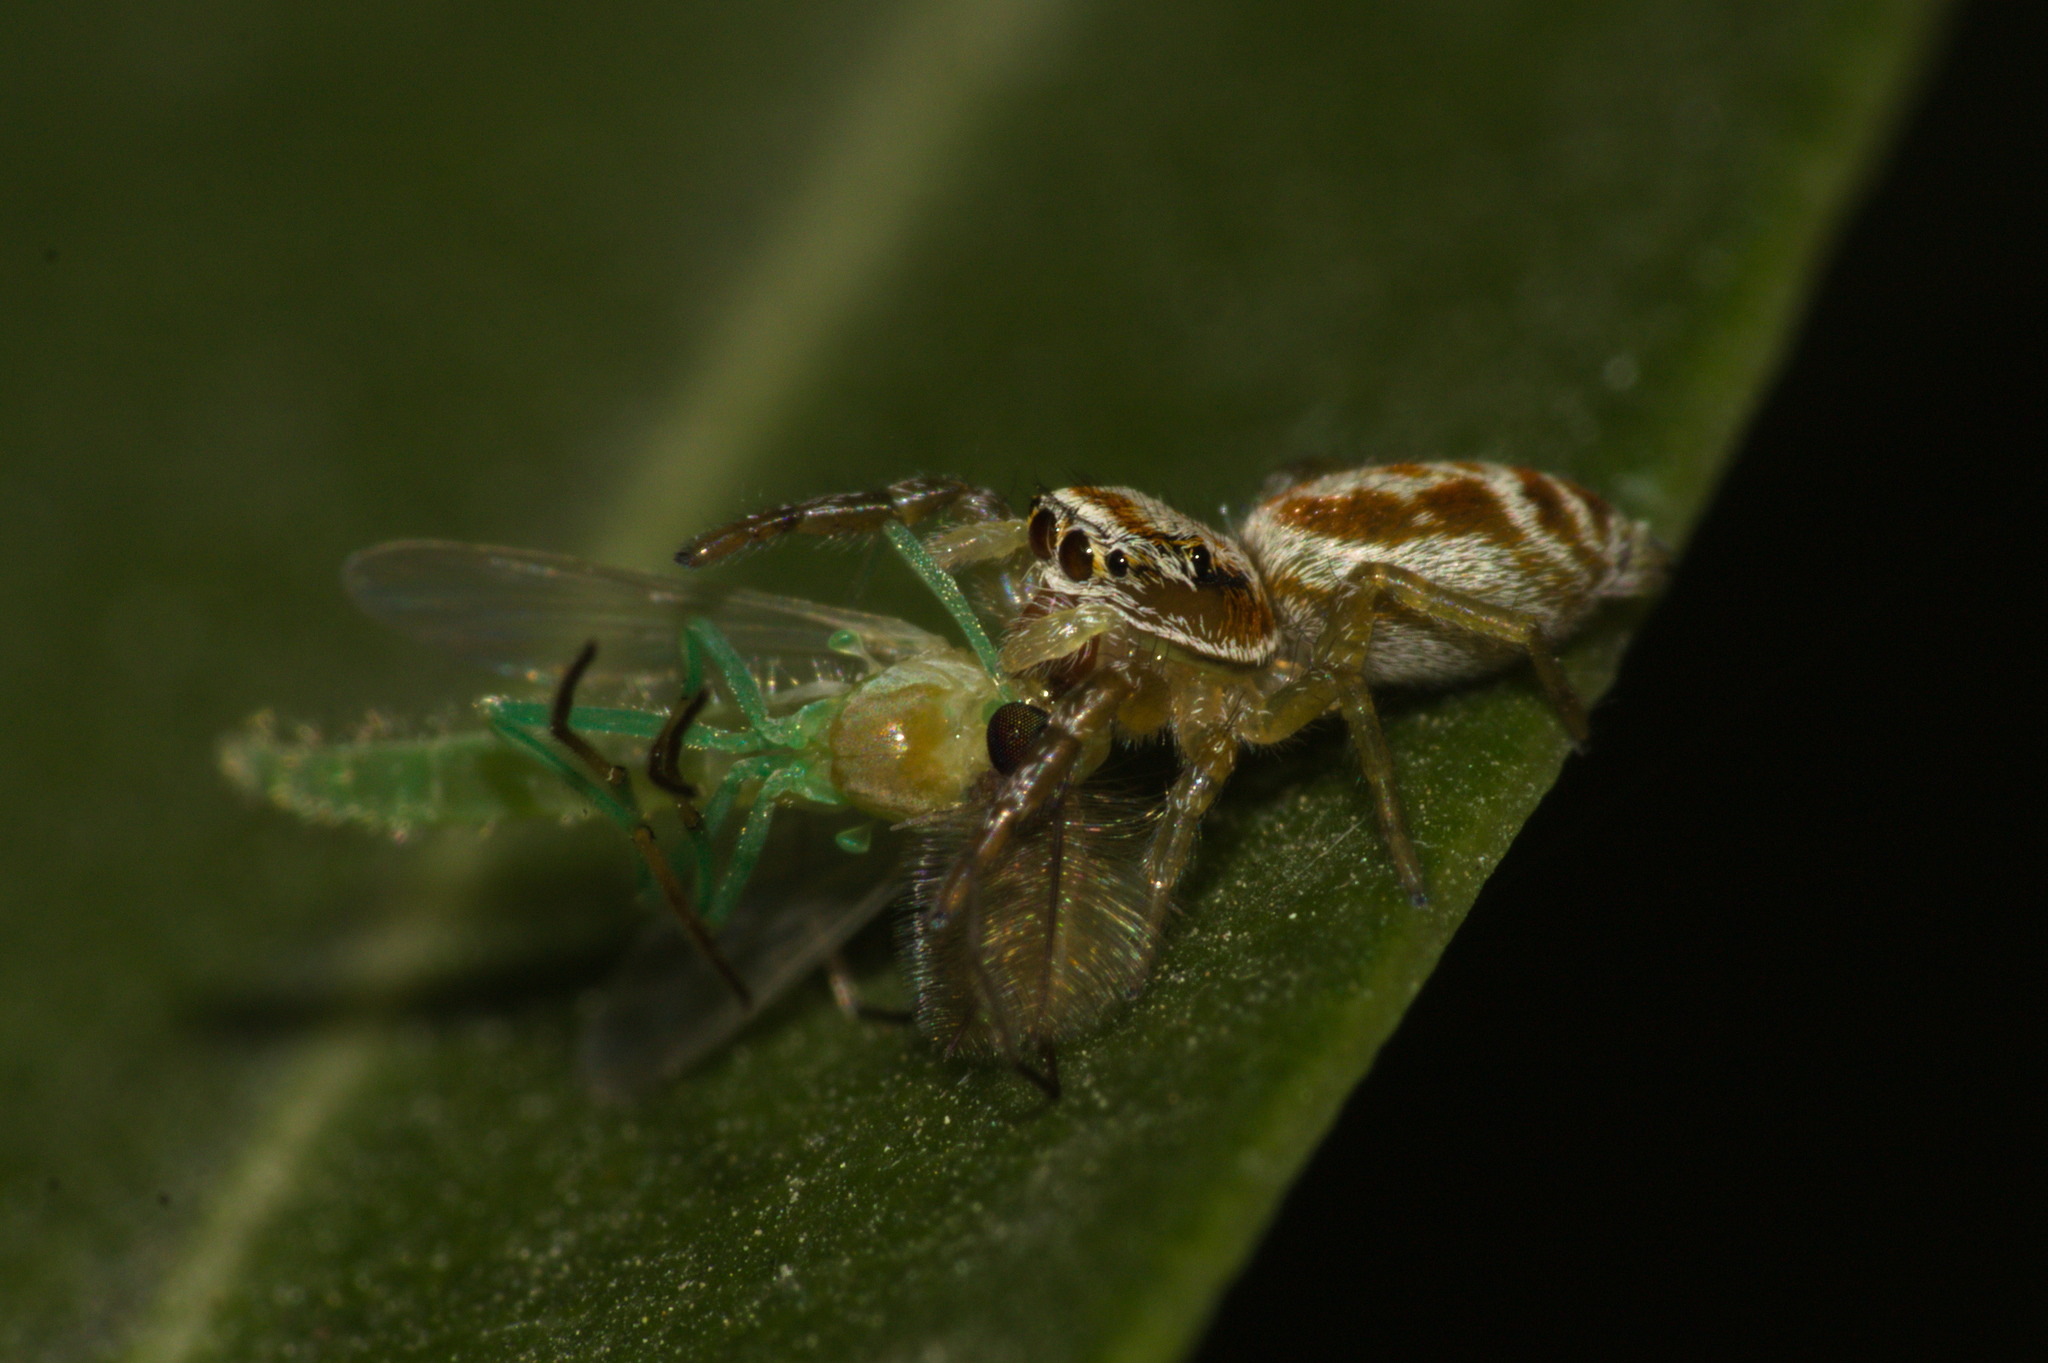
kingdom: Animalia
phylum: Arthropoda
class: Arachnida
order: Araneae
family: Salticidae
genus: Icius
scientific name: Icius subinermis
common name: Jumping spider
